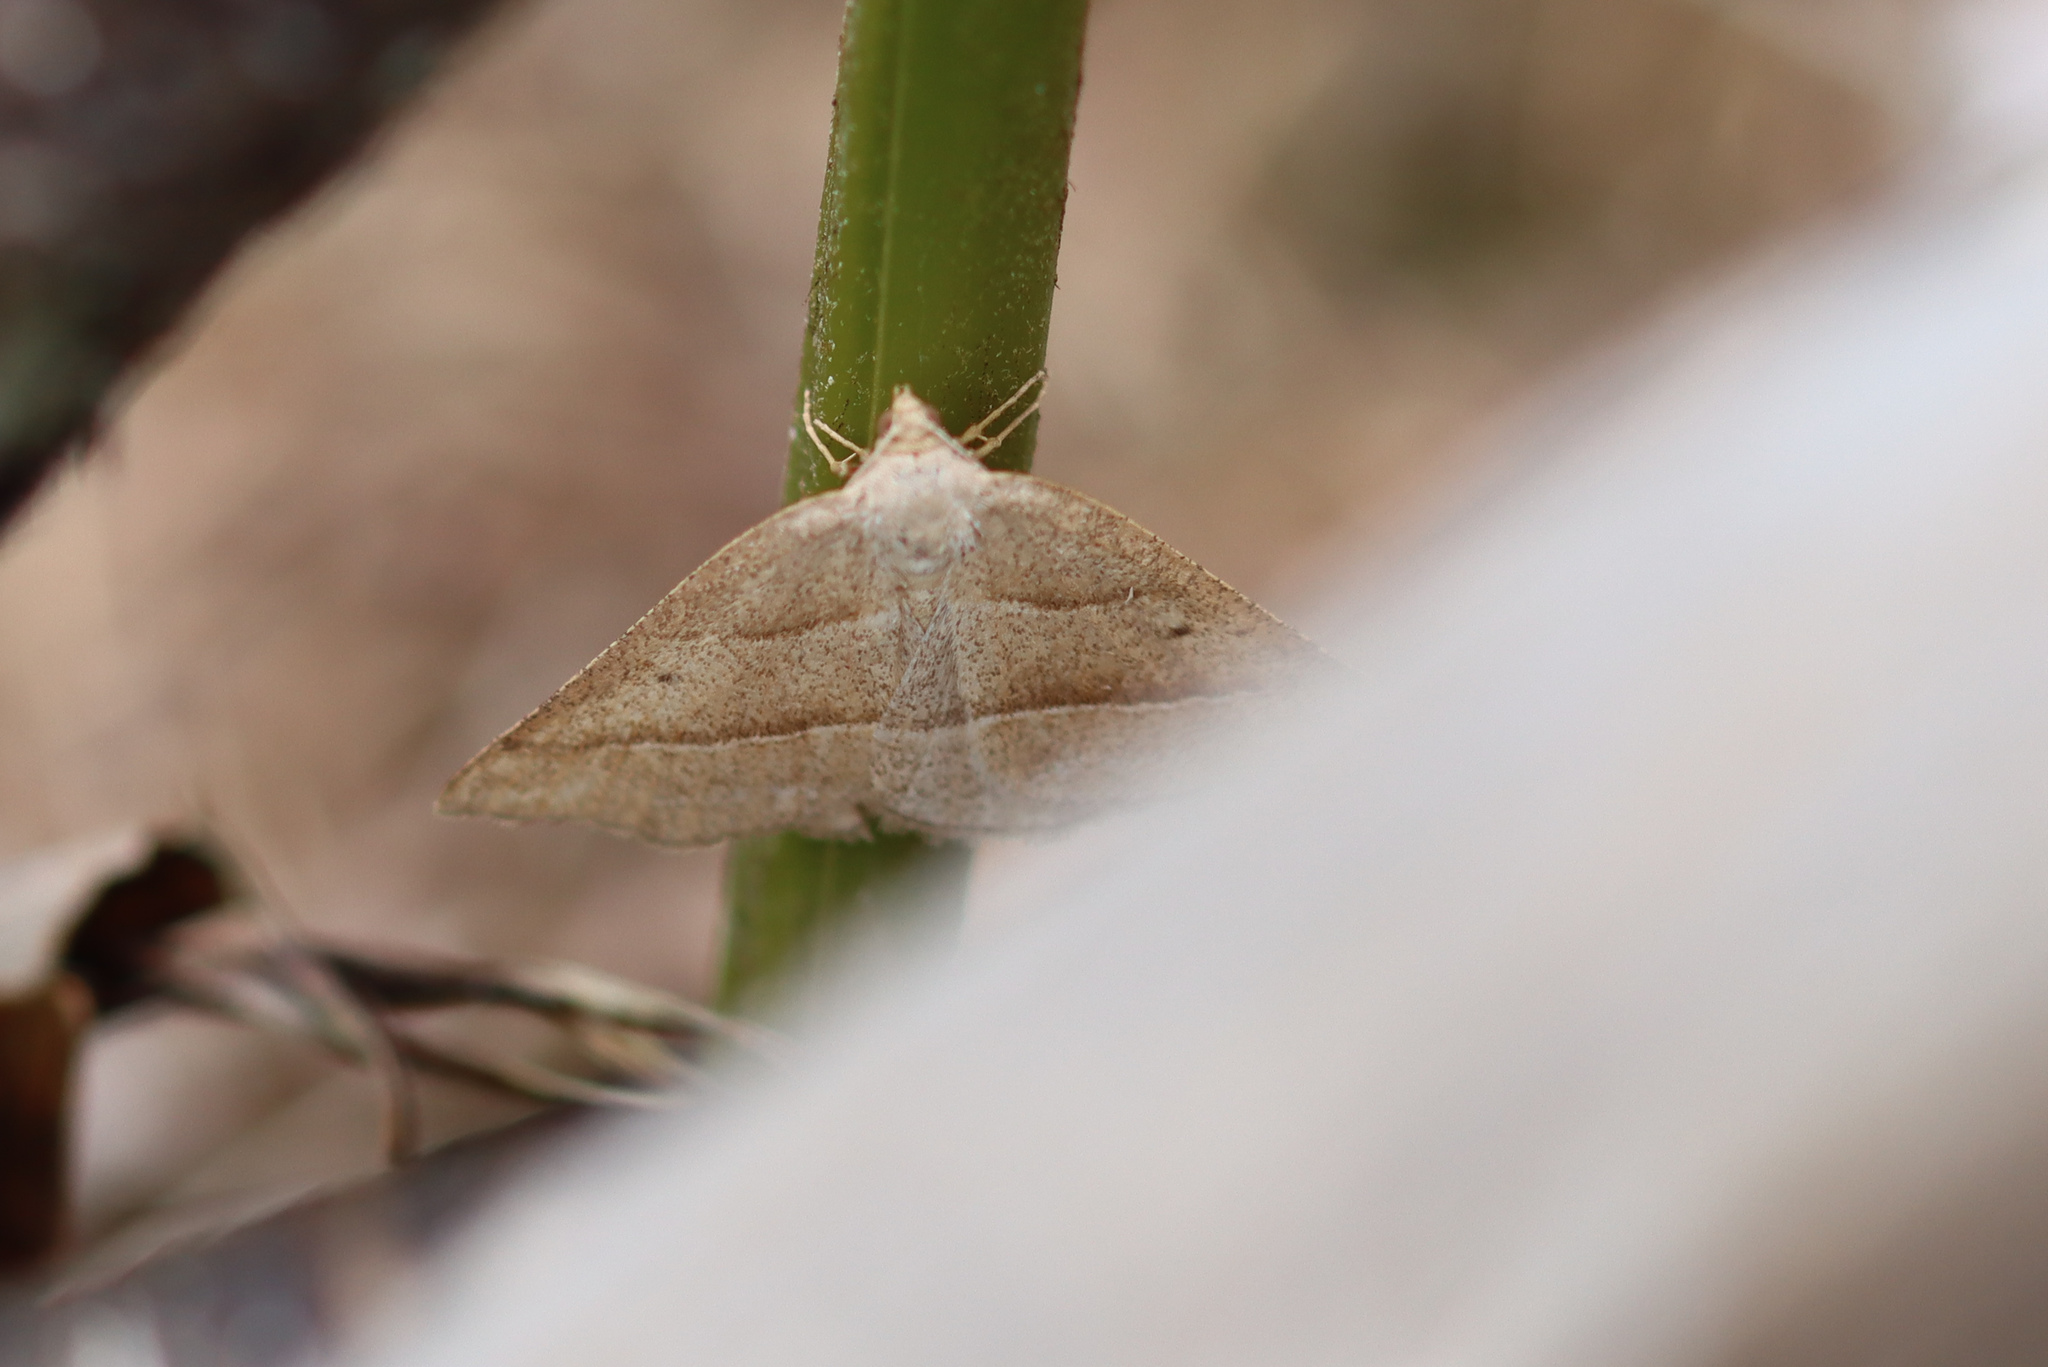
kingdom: Animalia
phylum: Arthropoda
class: Insecta
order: Lepidoptera
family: Pterophoridae
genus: Pterophorus
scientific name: Pterophorus Petrophora chlorosata
